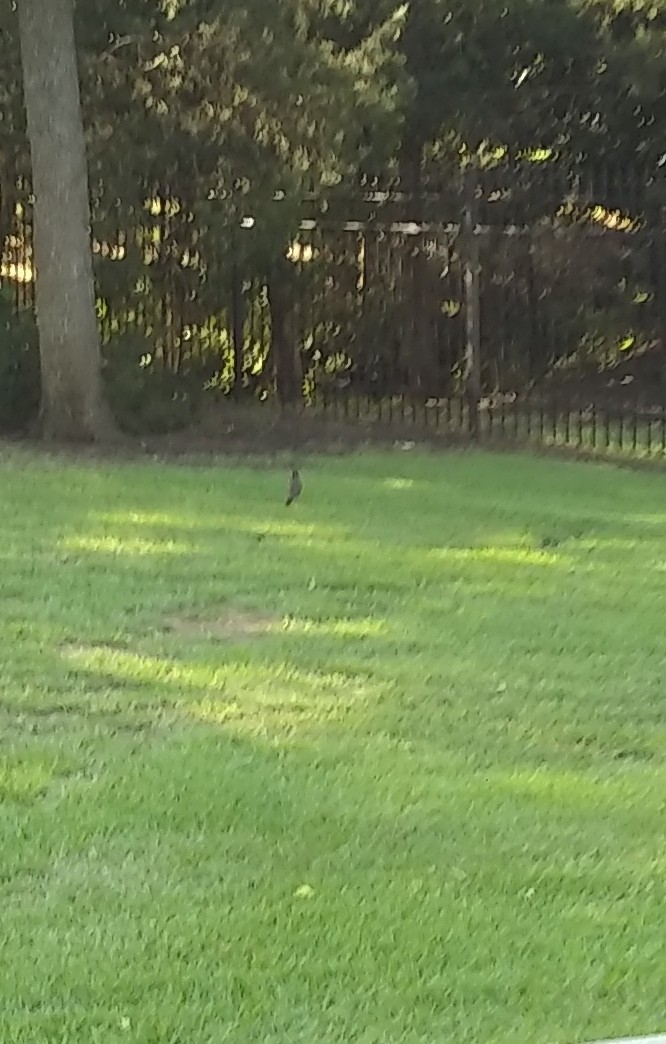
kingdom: Animalia
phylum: Chordata
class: Aves
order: Passeriformes
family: Turdidae
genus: Turdus
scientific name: Turdus migratorius
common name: American robin
